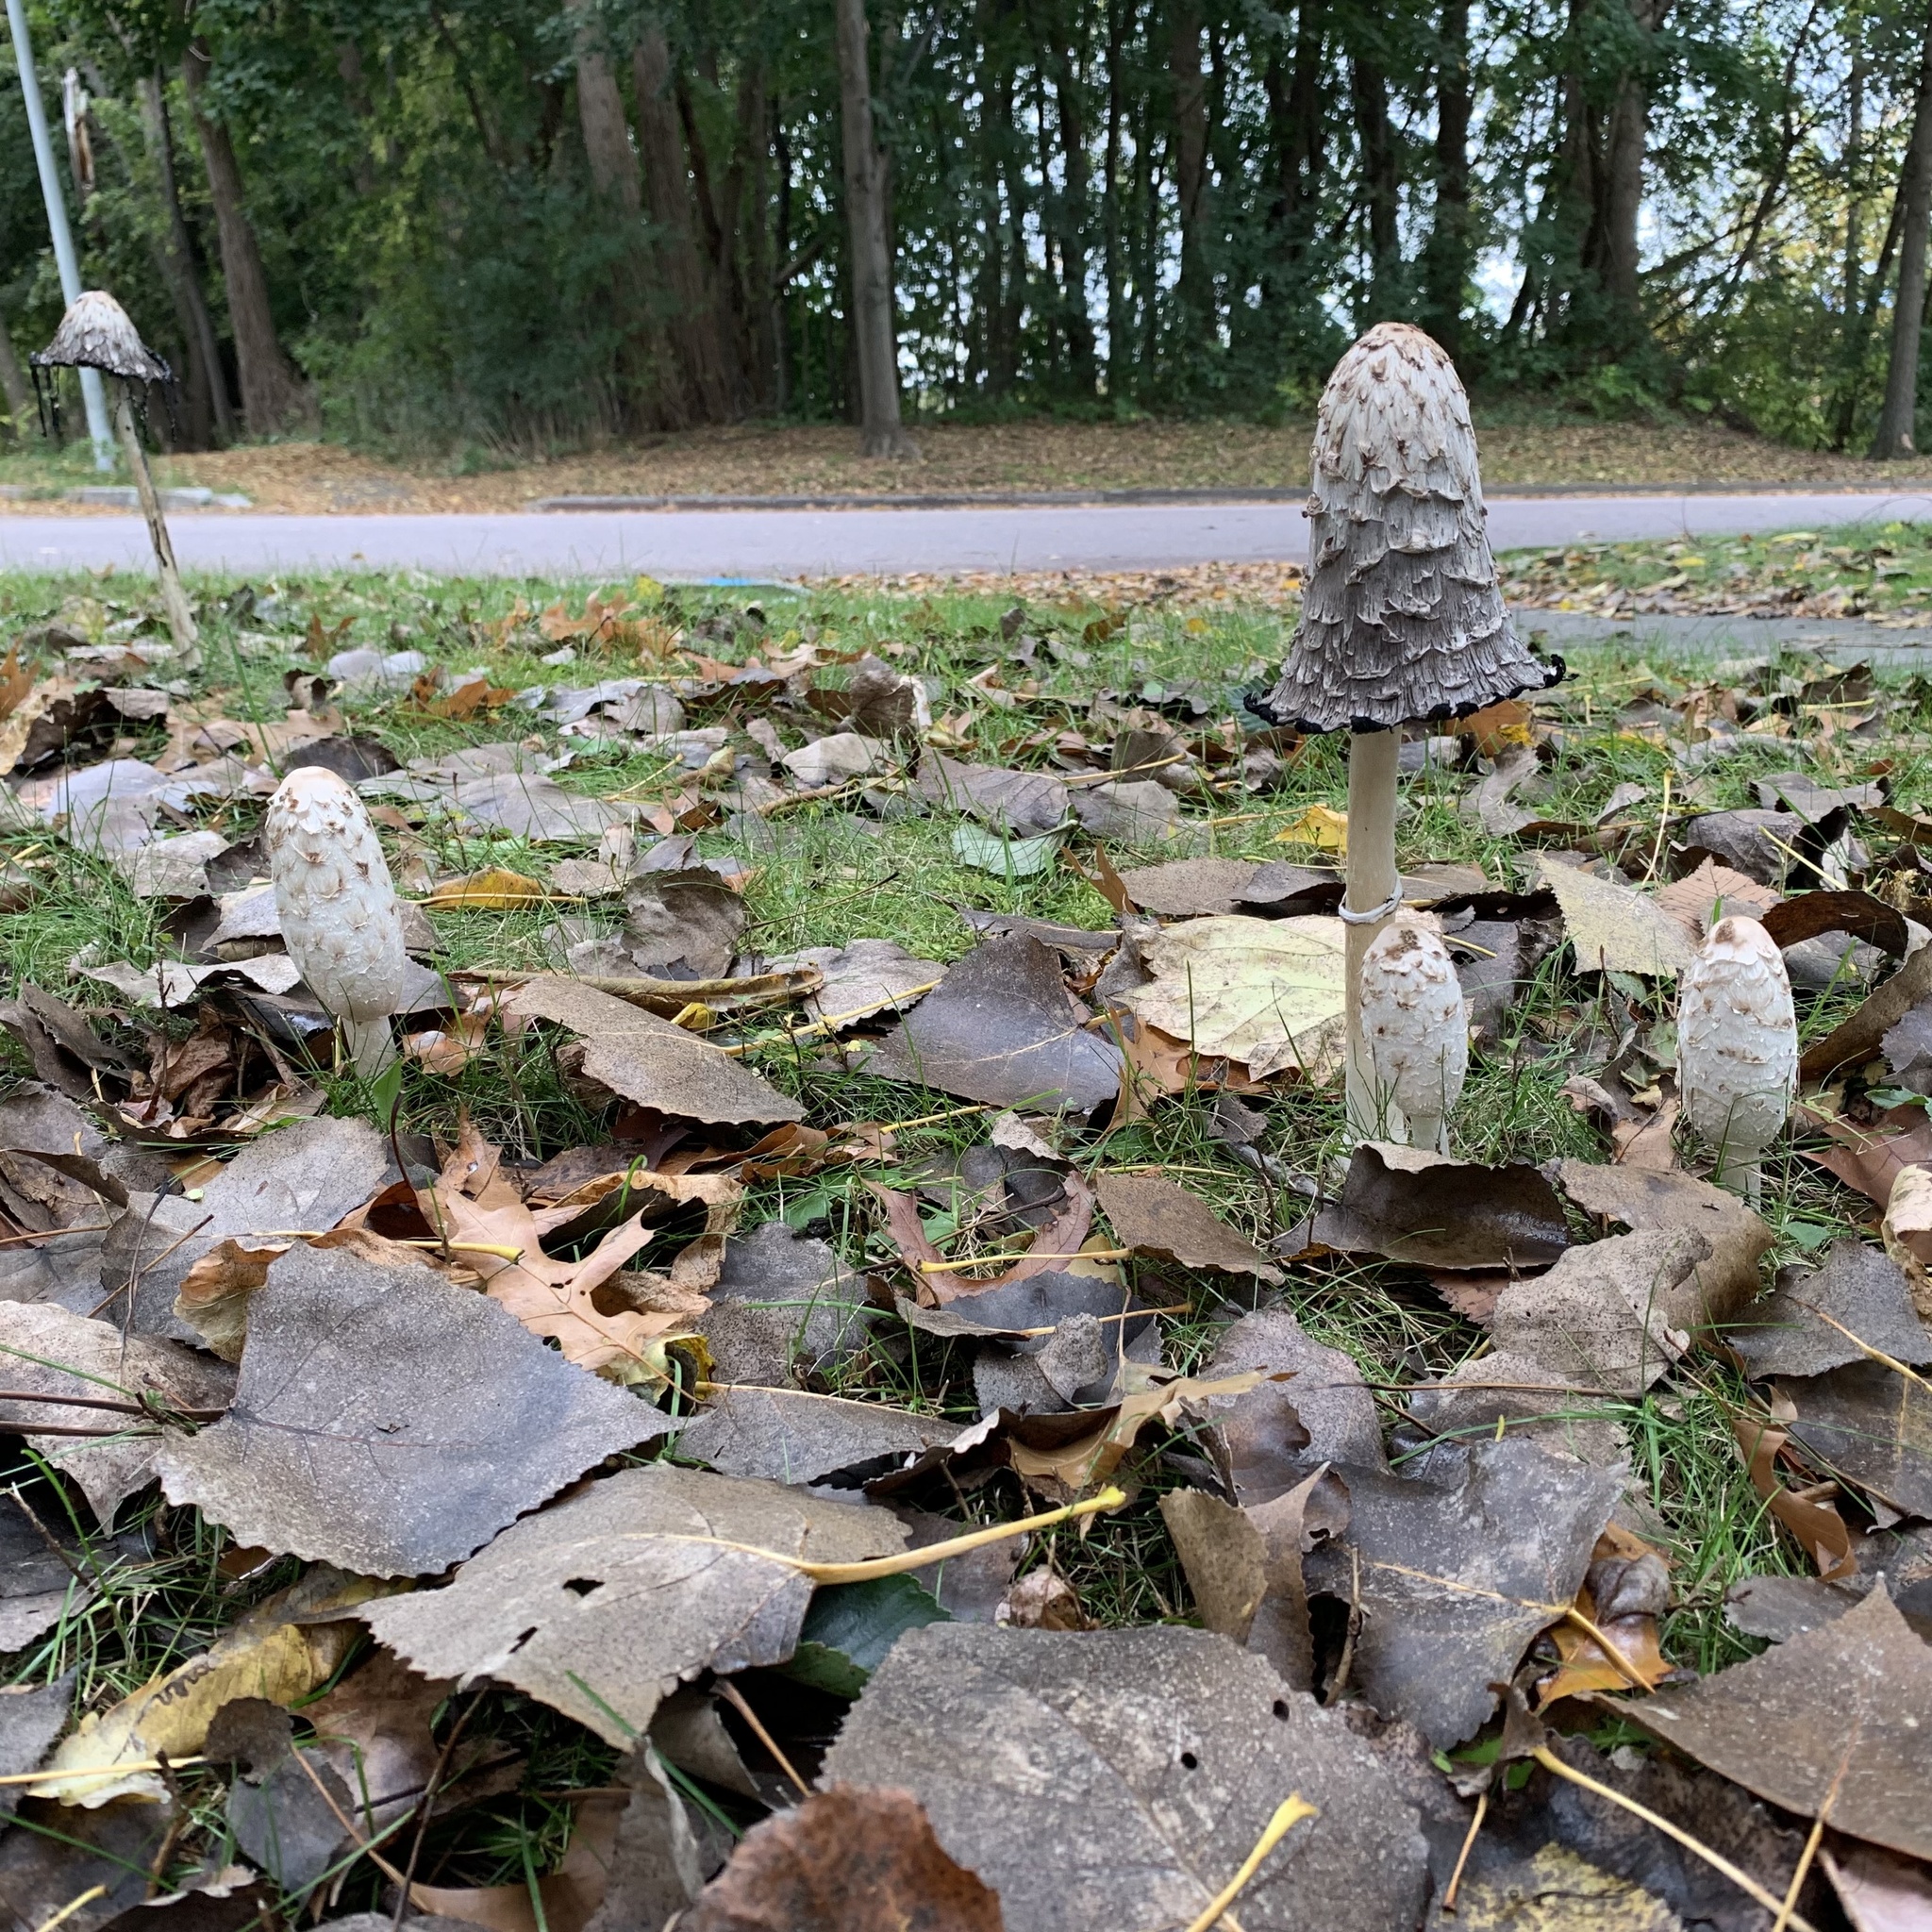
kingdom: Fungi
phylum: Basidiomycota
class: Agaricomycetes
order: Agaricales
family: Agaricaceae
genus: Coprinus
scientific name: Coprinus comatus
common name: Lawyer's wig
